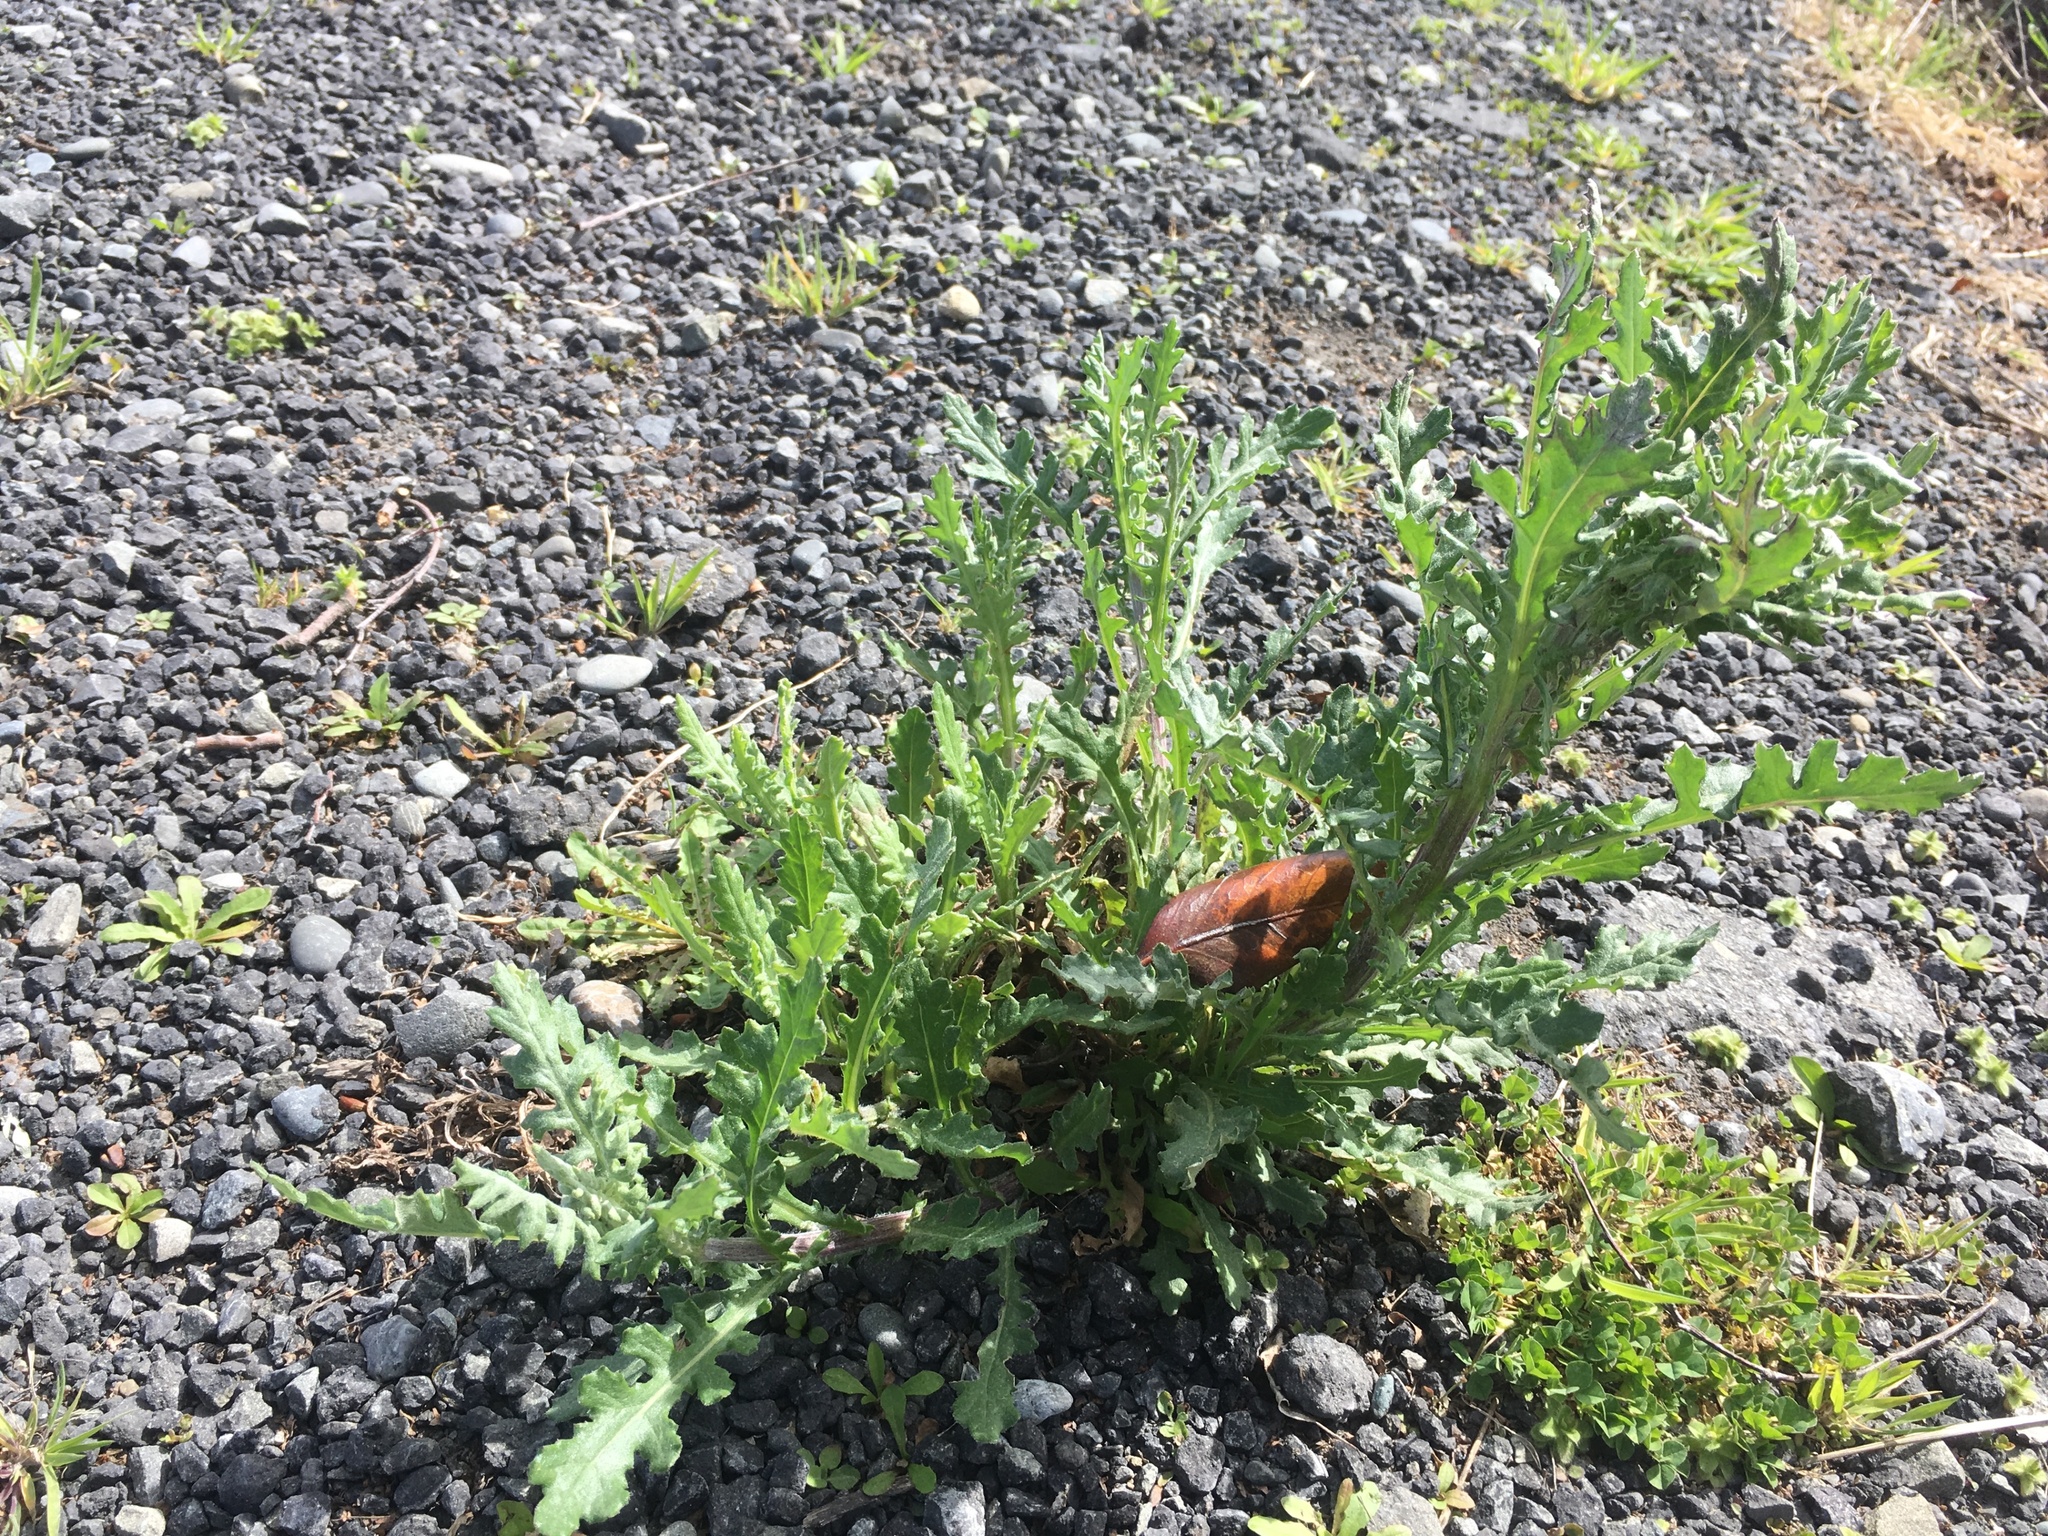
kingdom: Plantae
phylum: Tracheophyta
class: Magnoliopsida
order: Asterales
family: Asteraceae
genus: Senecio
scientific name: Senecio glomeratus
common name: Cutleaf burnweed
